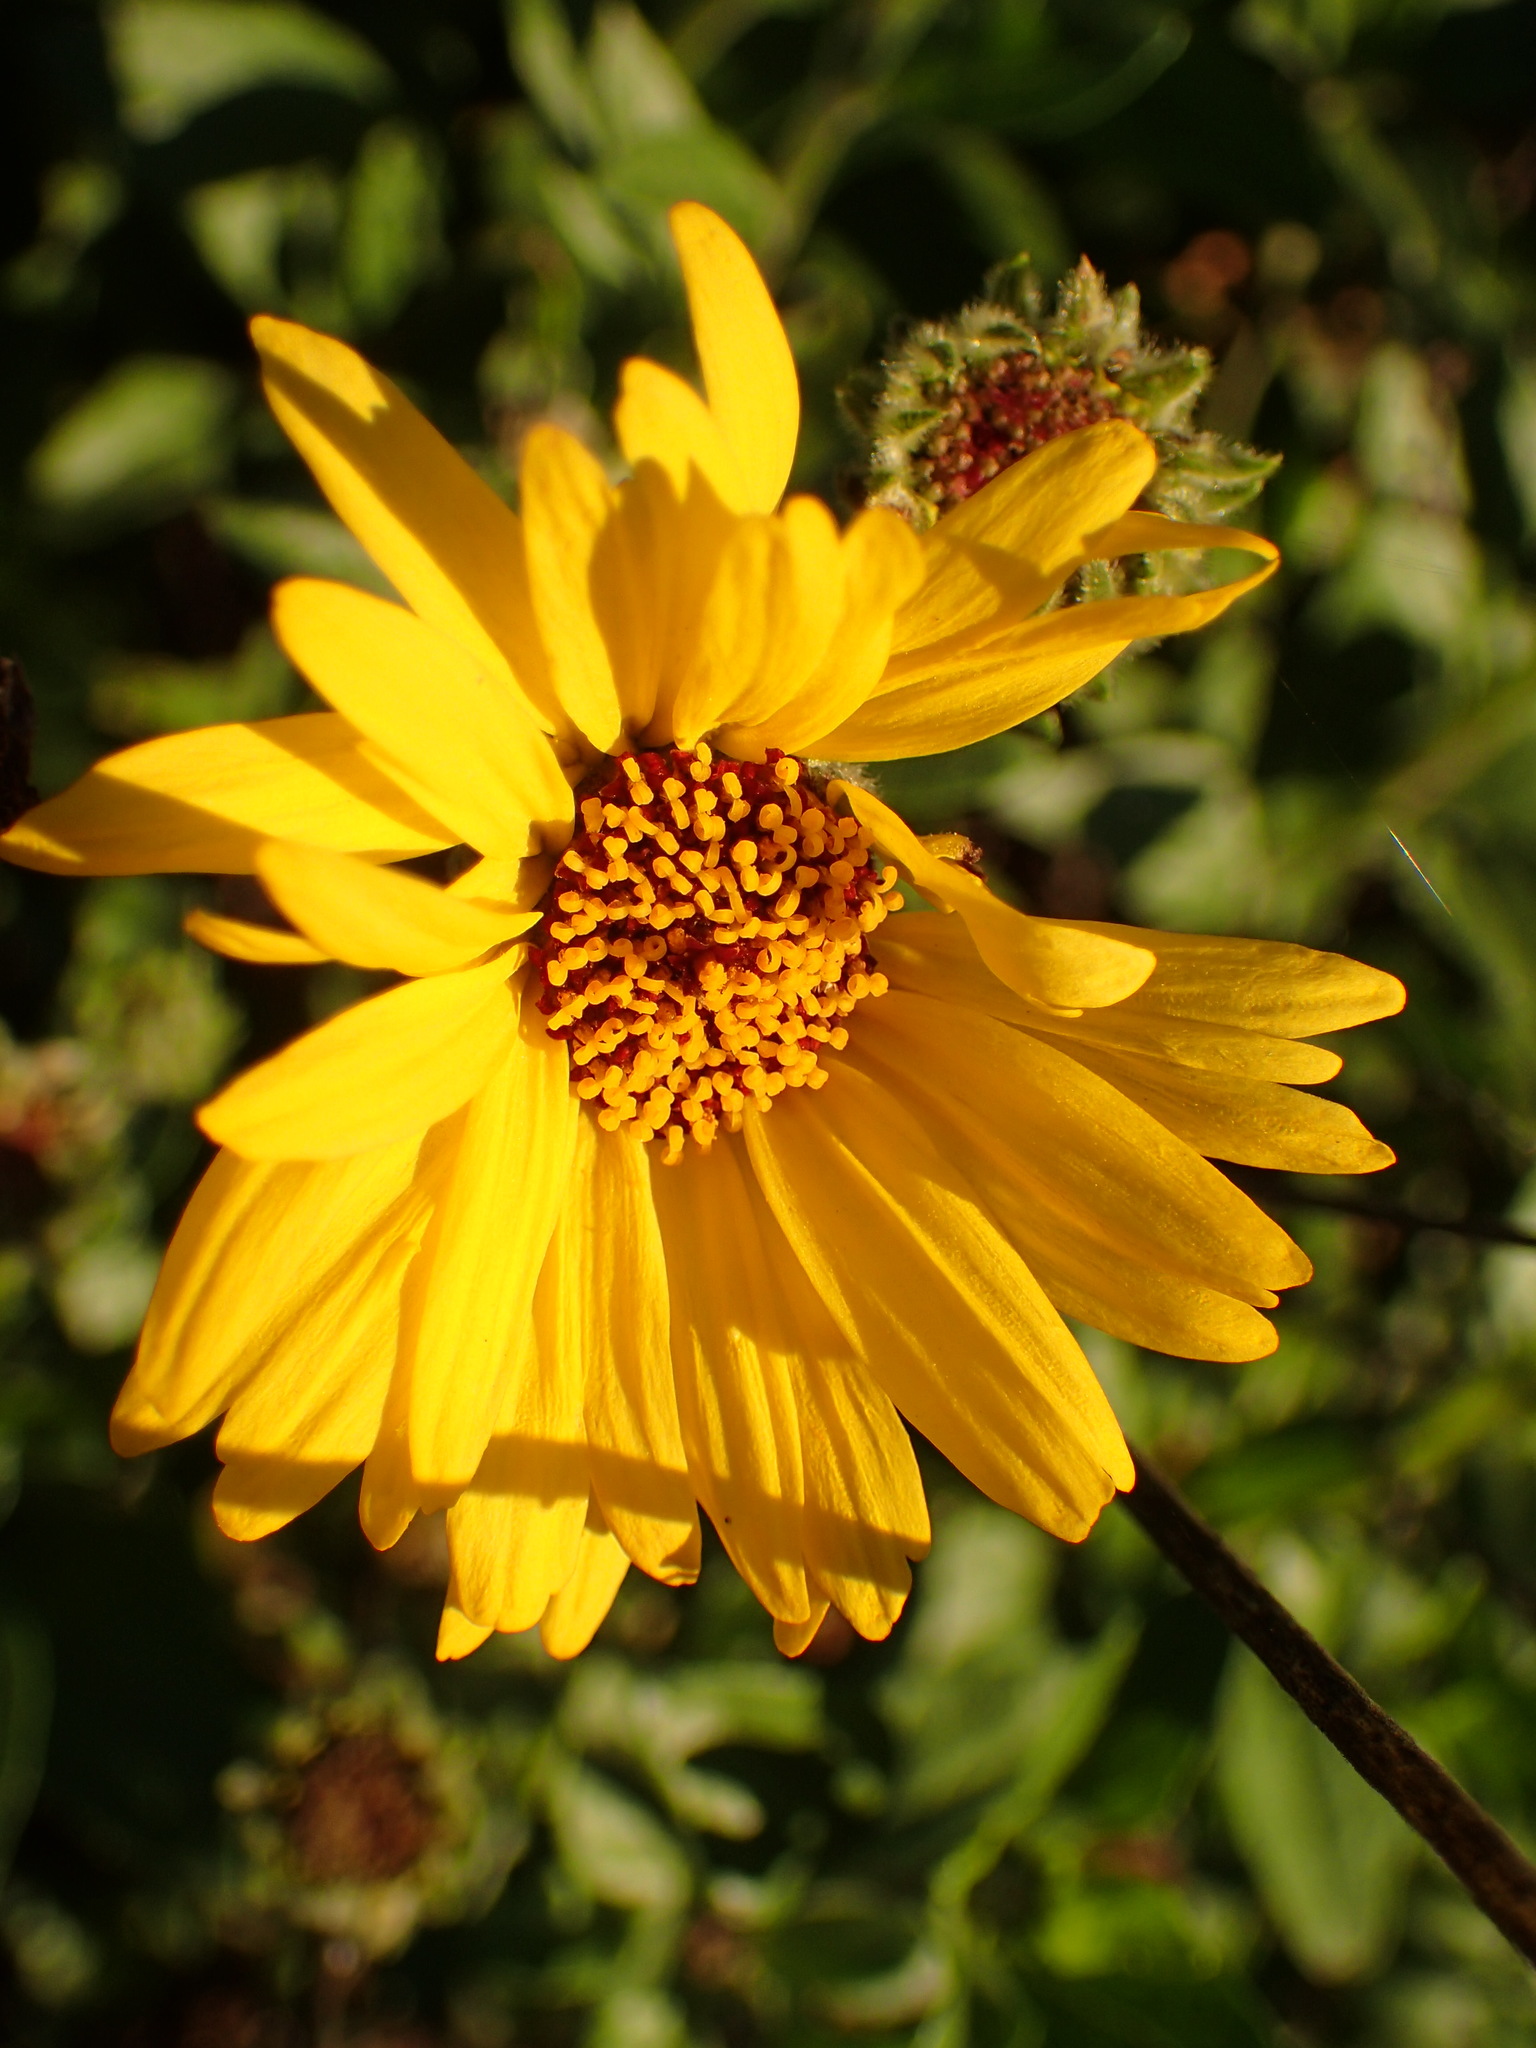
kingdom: Plantae
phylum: Tracheophyta
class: Magnoliopsida
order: Asterales
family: Asteraceae
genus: Encelia
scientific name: Encelia californica
